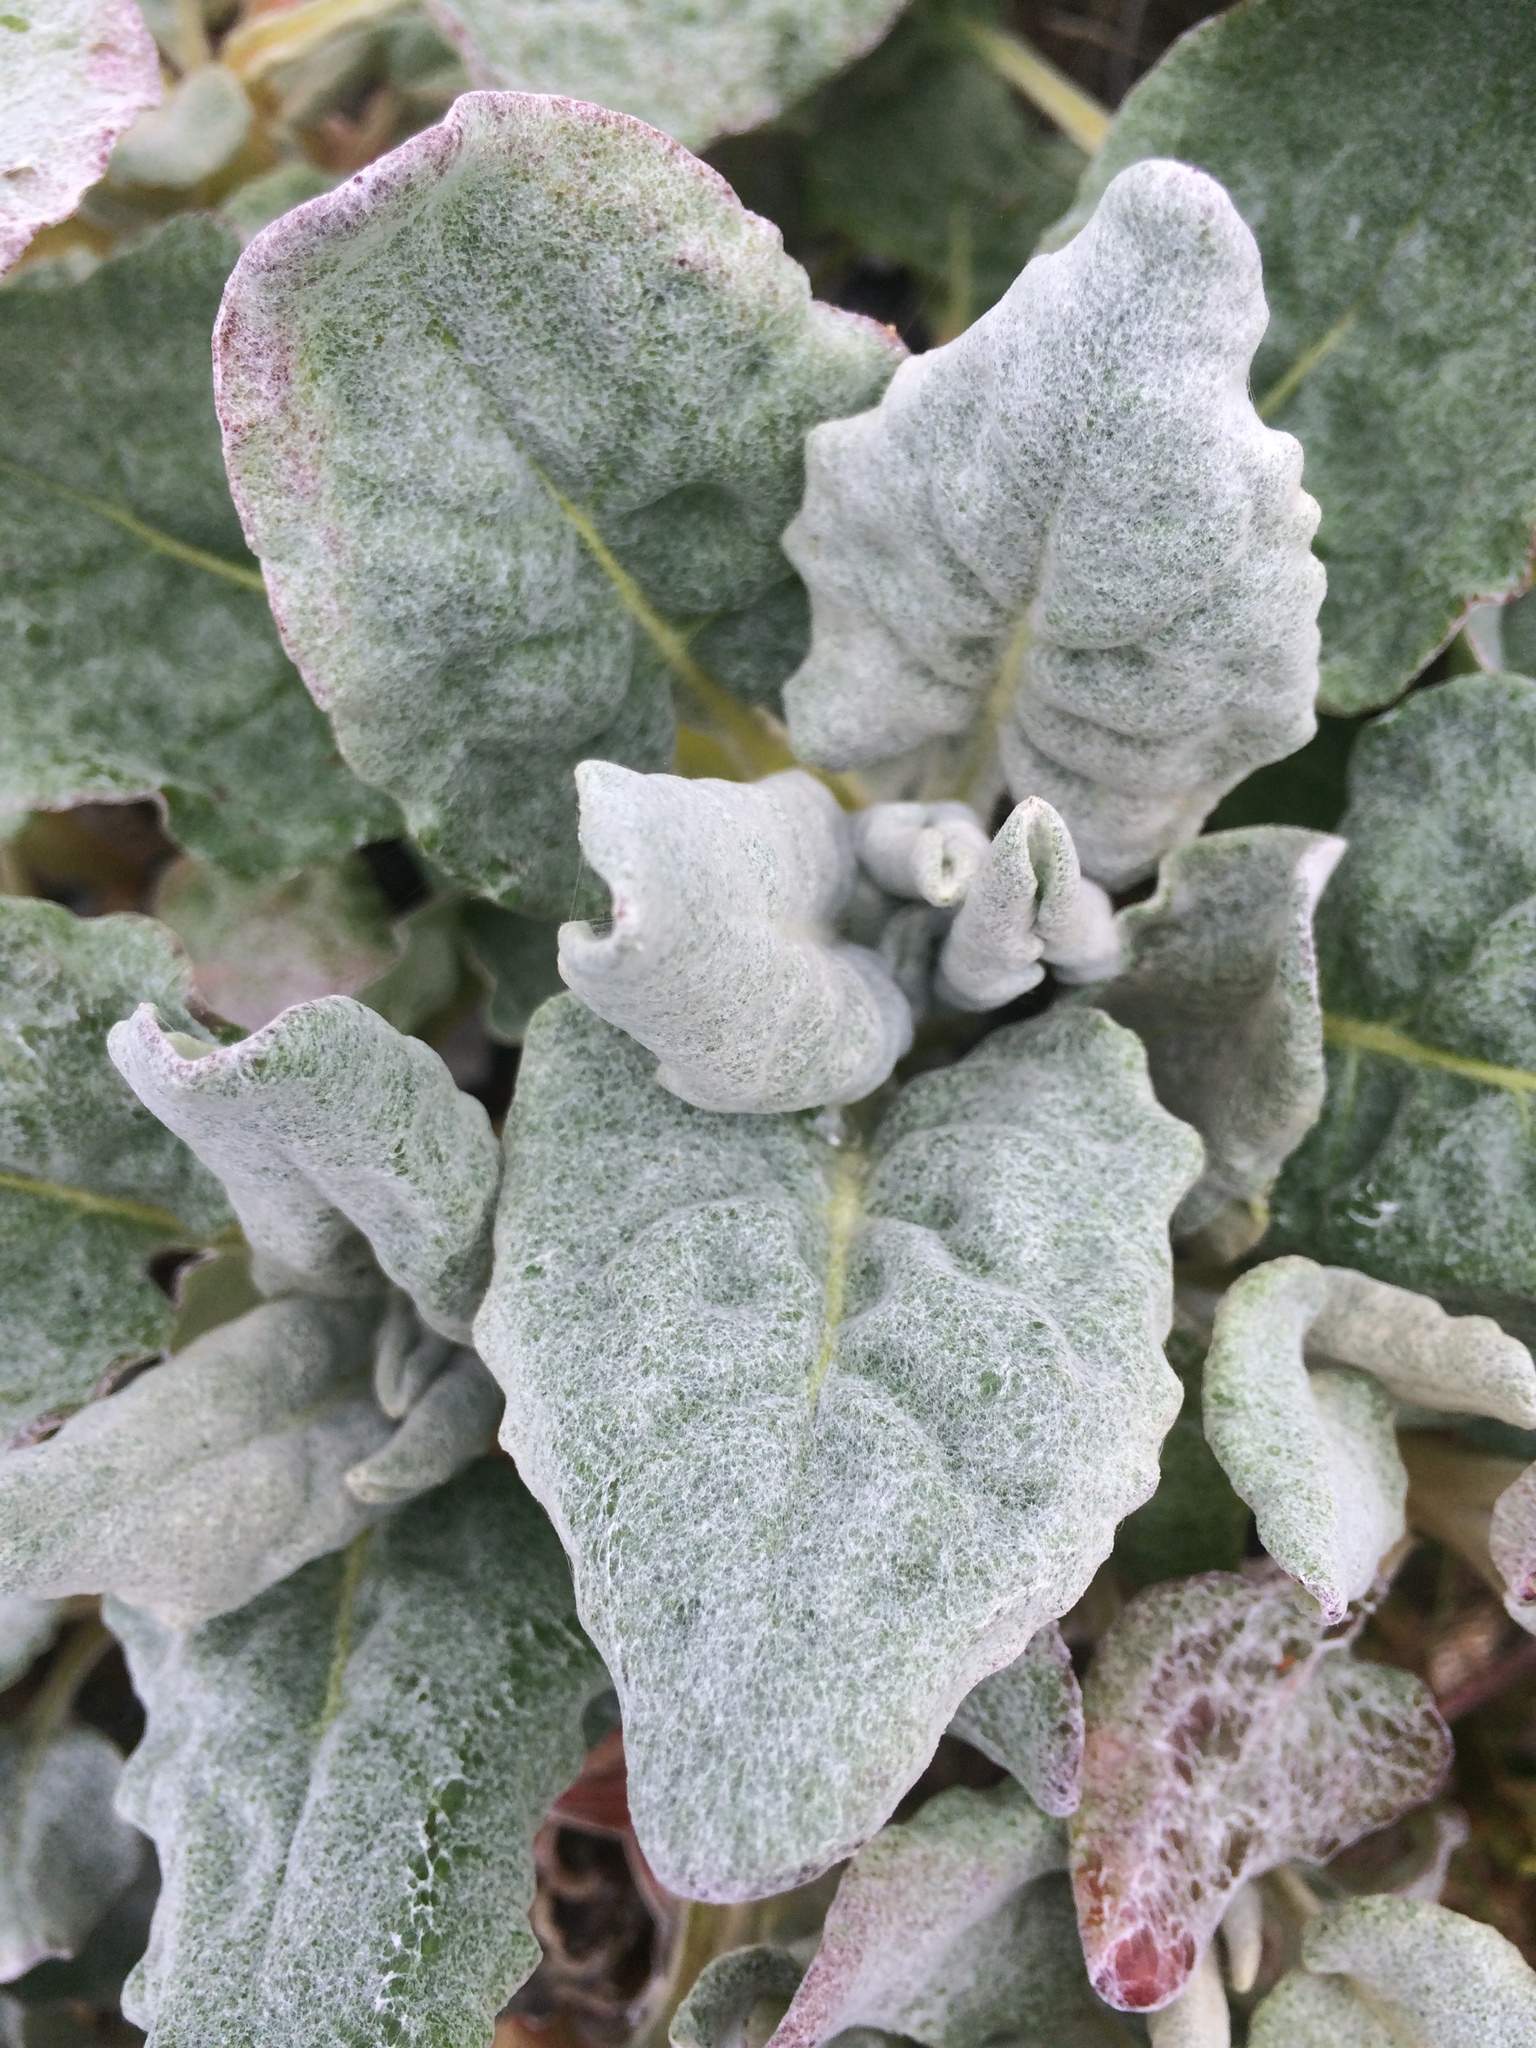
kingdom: Plantae
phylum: Tracheophyta
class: Magnoliopsida
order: Caryophyllales
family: Polygonaceae
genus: Eriogonum
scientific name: Eriogonum latifolium
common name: Seaside wild buckwheat
